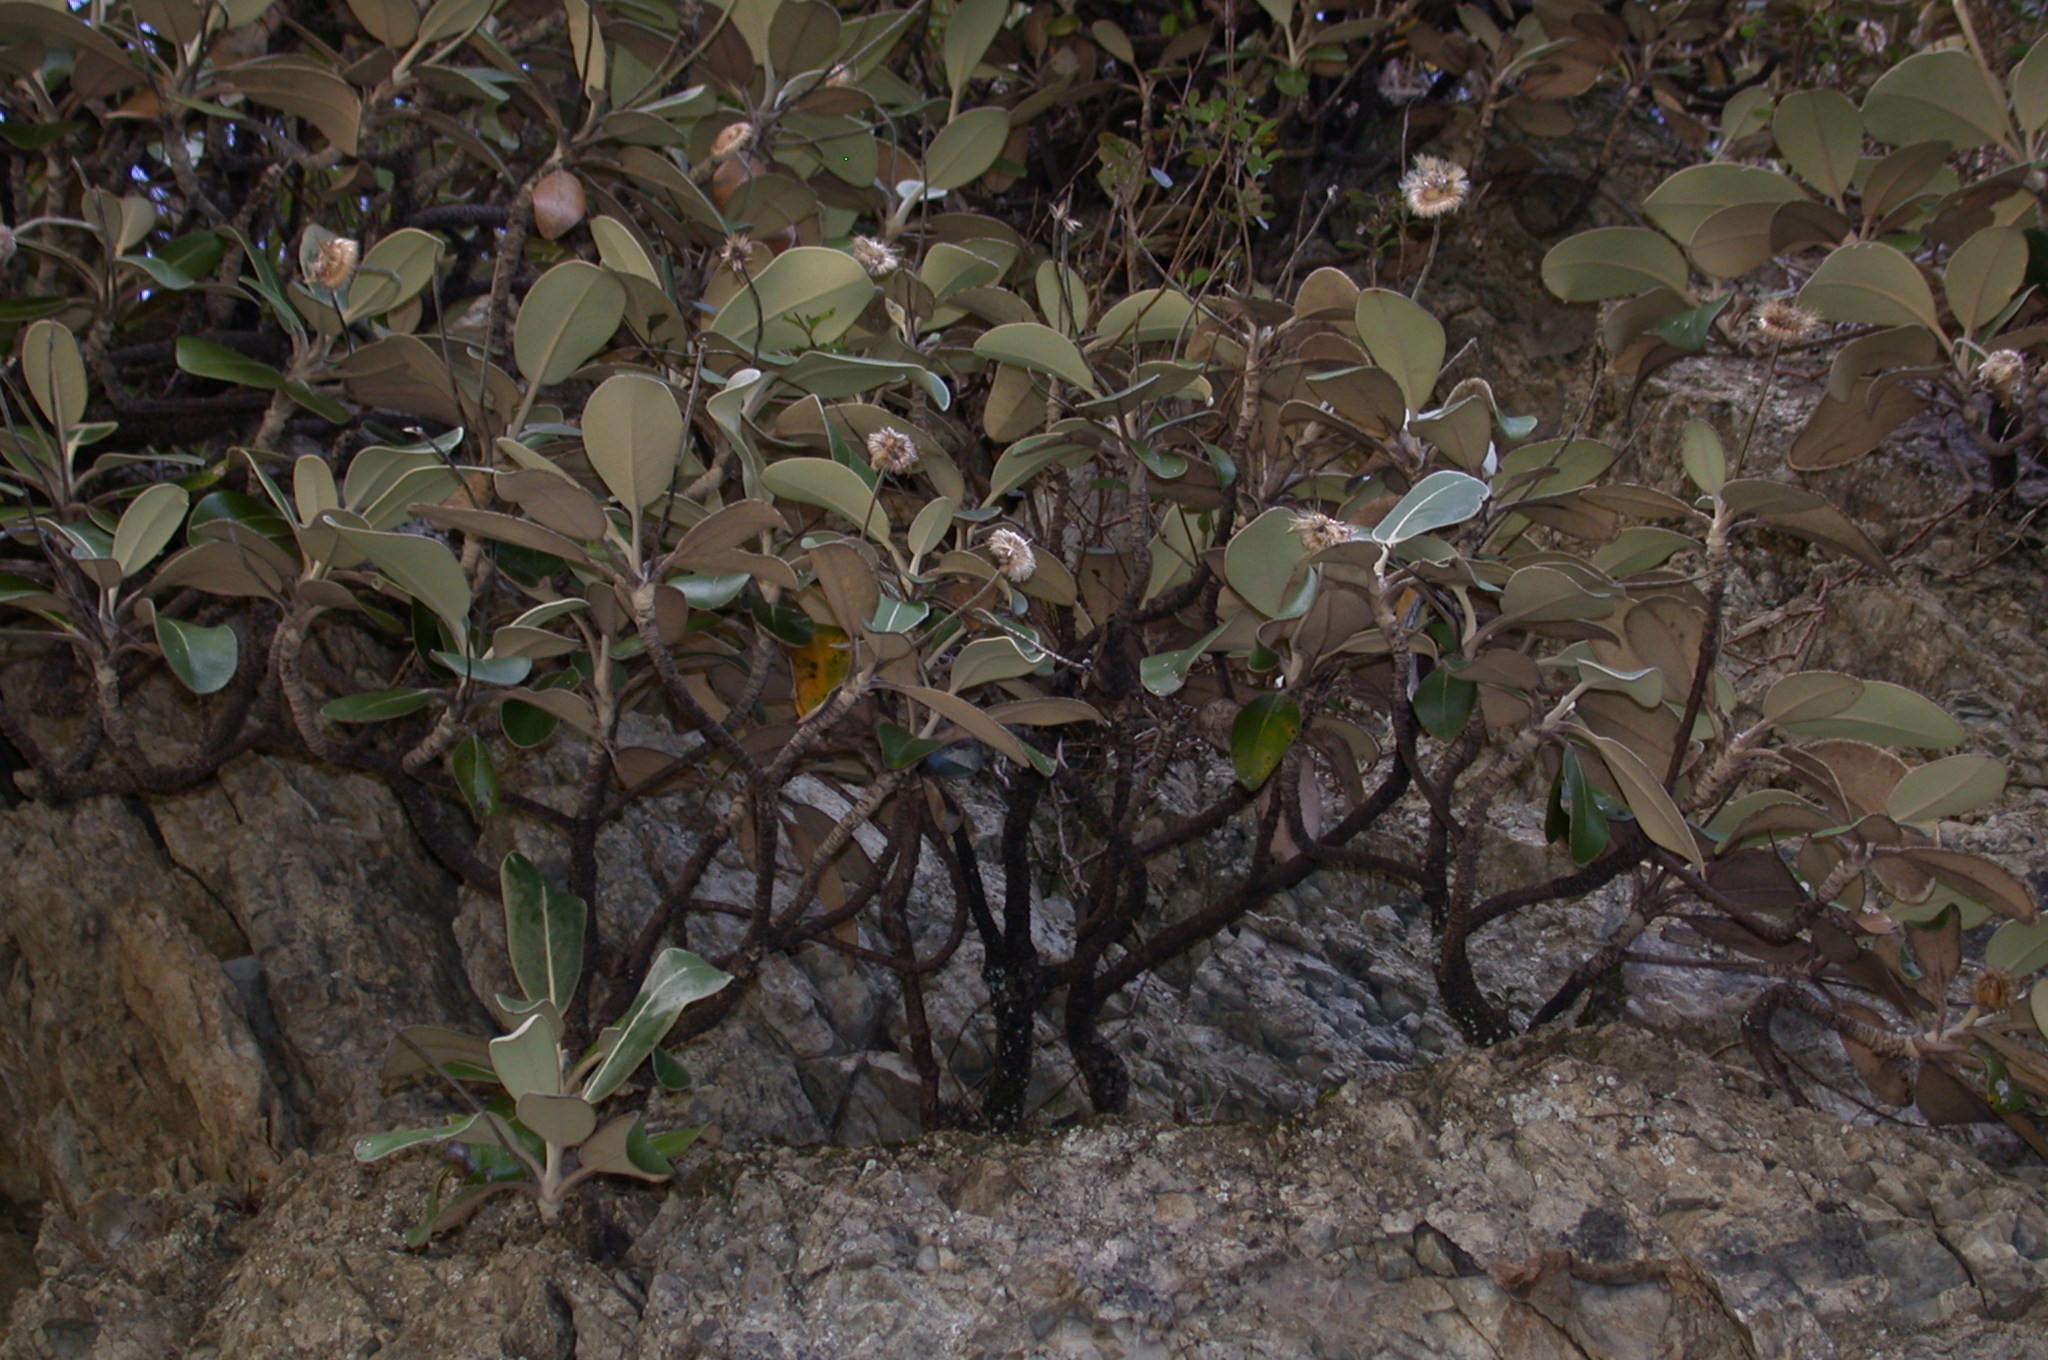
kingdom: Plantae
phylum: Tracheophyta
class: Magnoliopsida
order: Asterales
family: Asteraceae
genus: Pachystegia
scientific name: Pachystegia insignis
